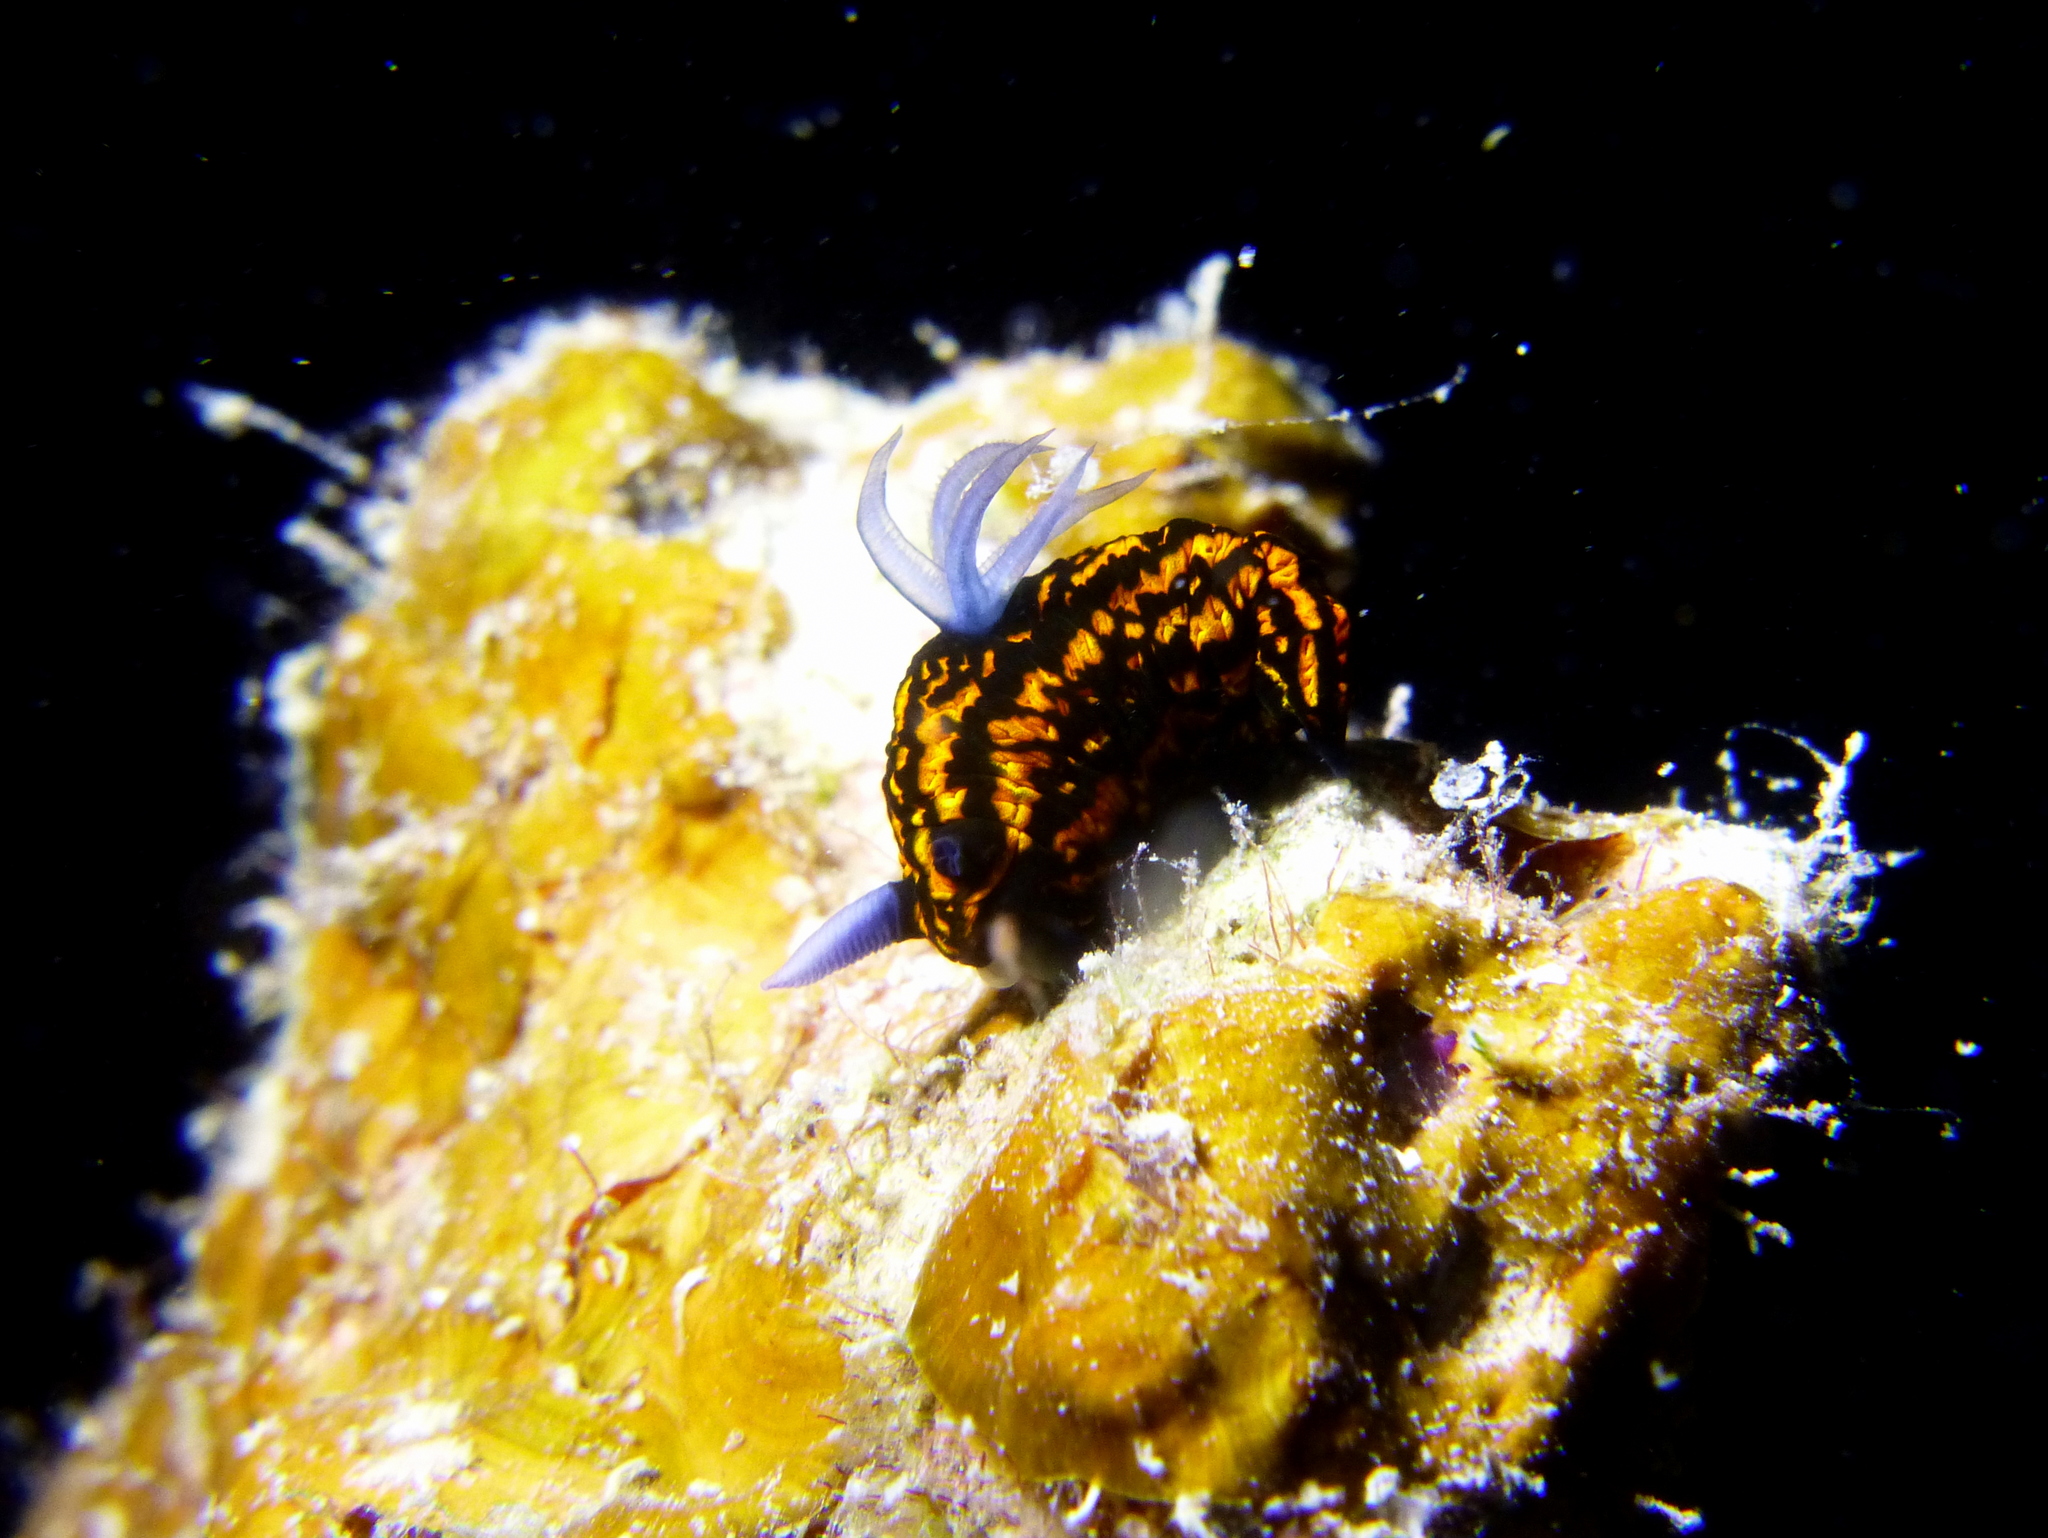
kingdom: Animalia
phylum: Mollusca
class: Gastropoda
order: Nudibranchia
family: Polyceridae
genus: Roboastra
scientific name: Roboastra gracilis
